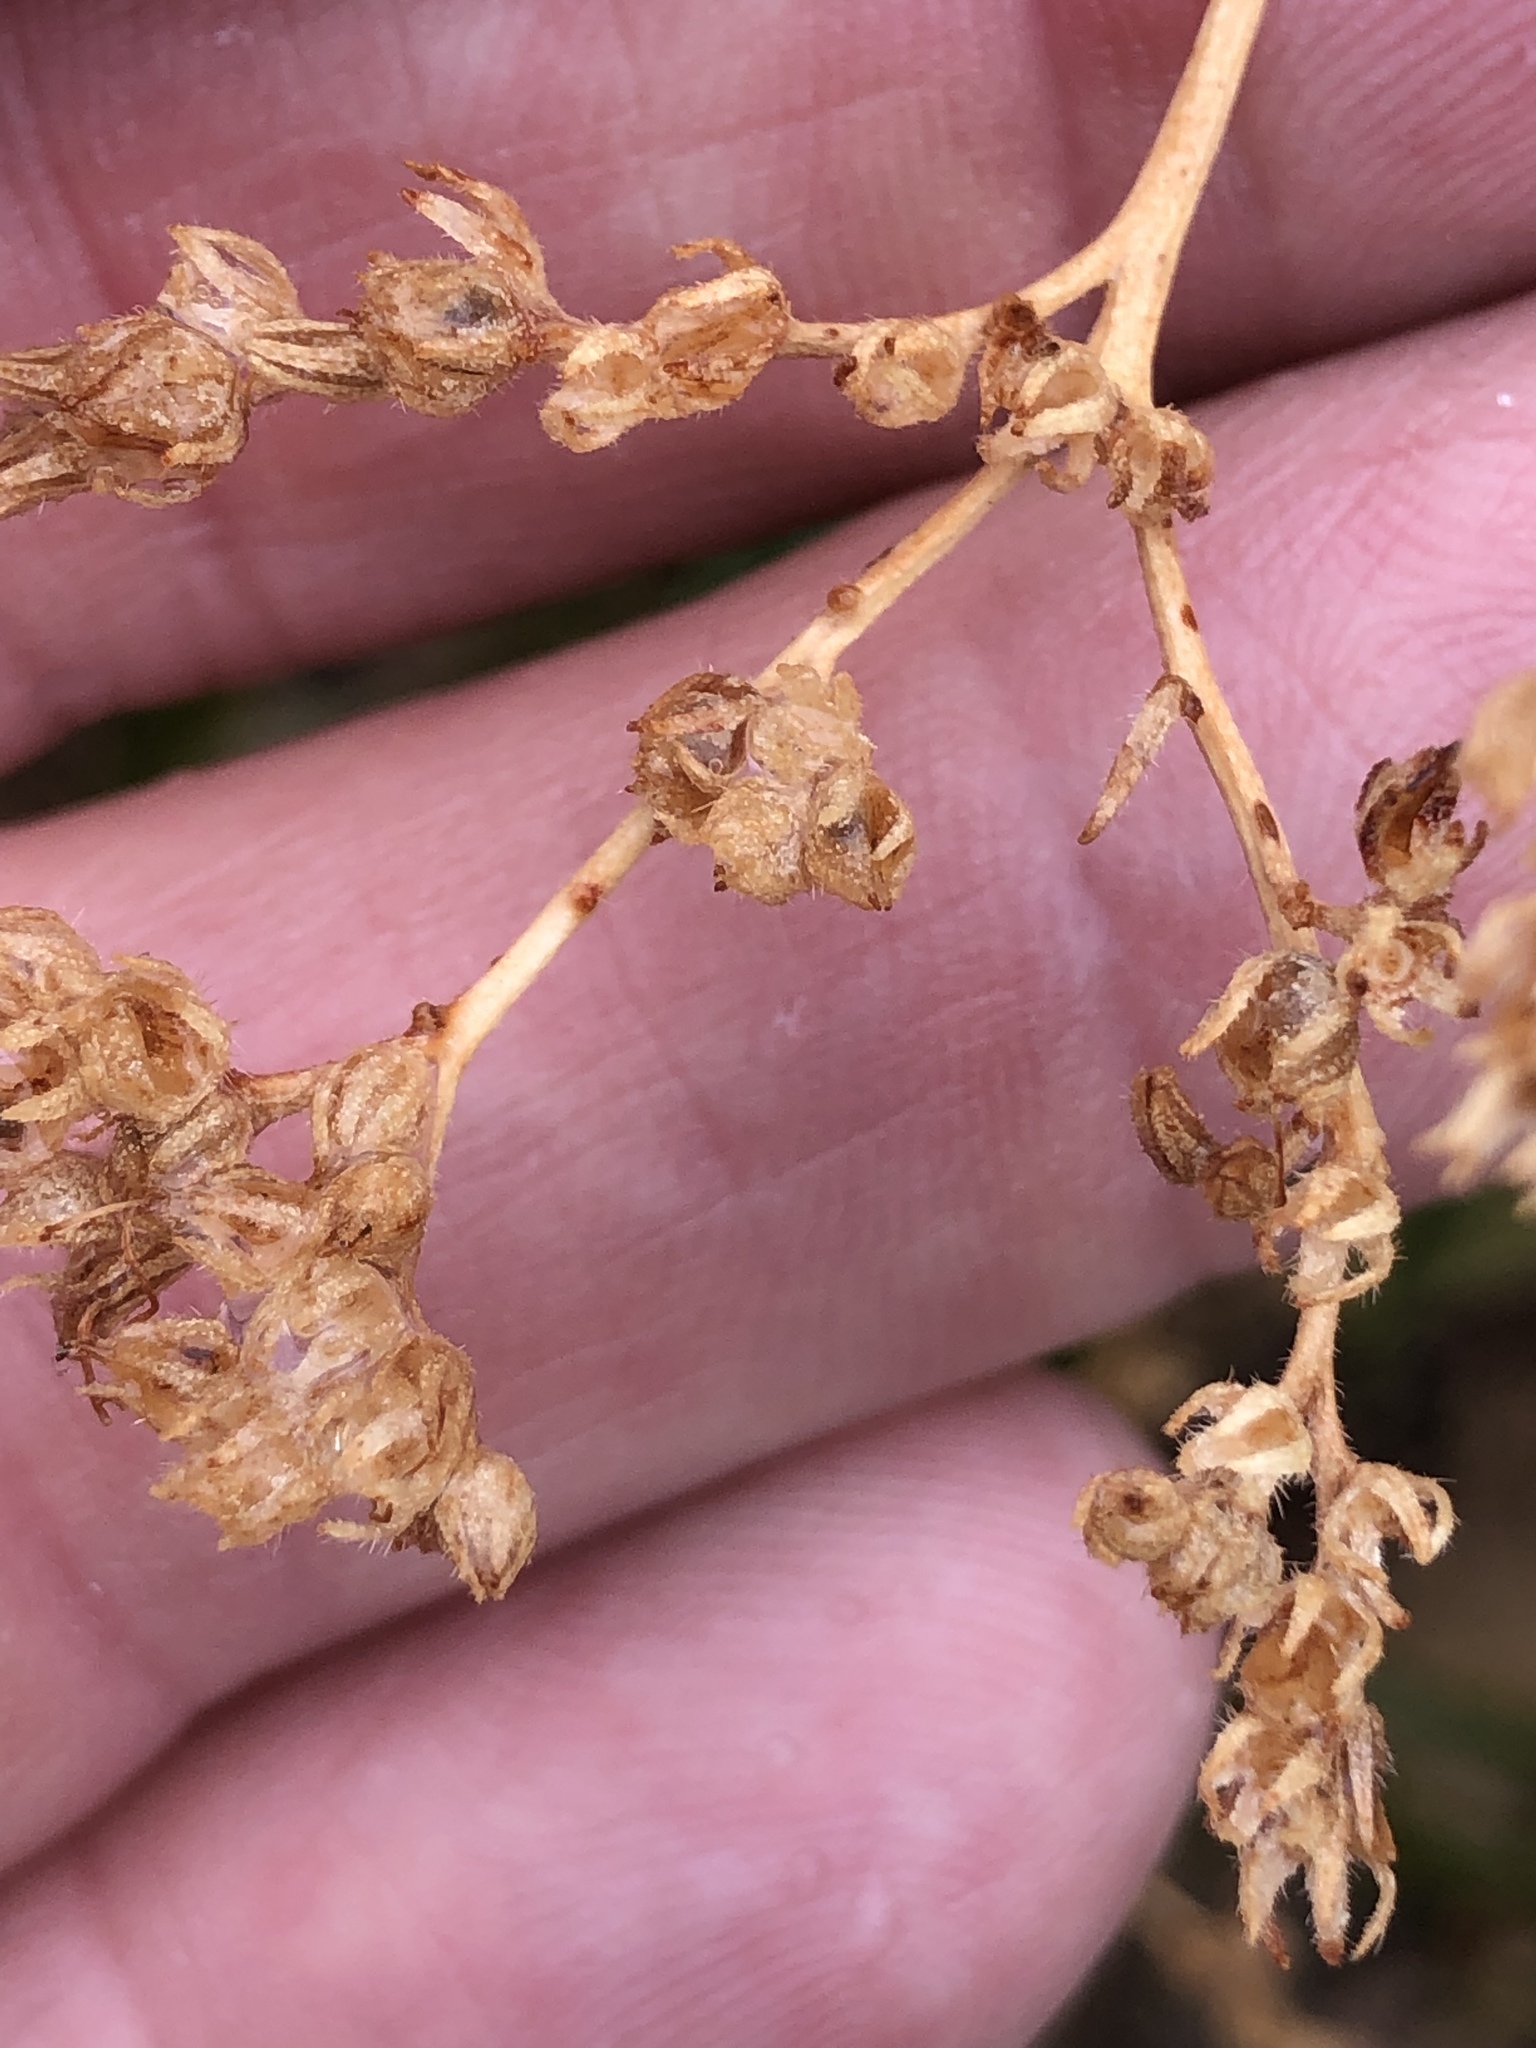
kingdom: Plantae
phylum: Tracheophyta
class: Magnoliopsida
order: Boraginales
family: Namaceae
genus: Eriodictyon
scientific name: Eriodictyon angustifolium
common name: Narrow-leaf yerba santa
